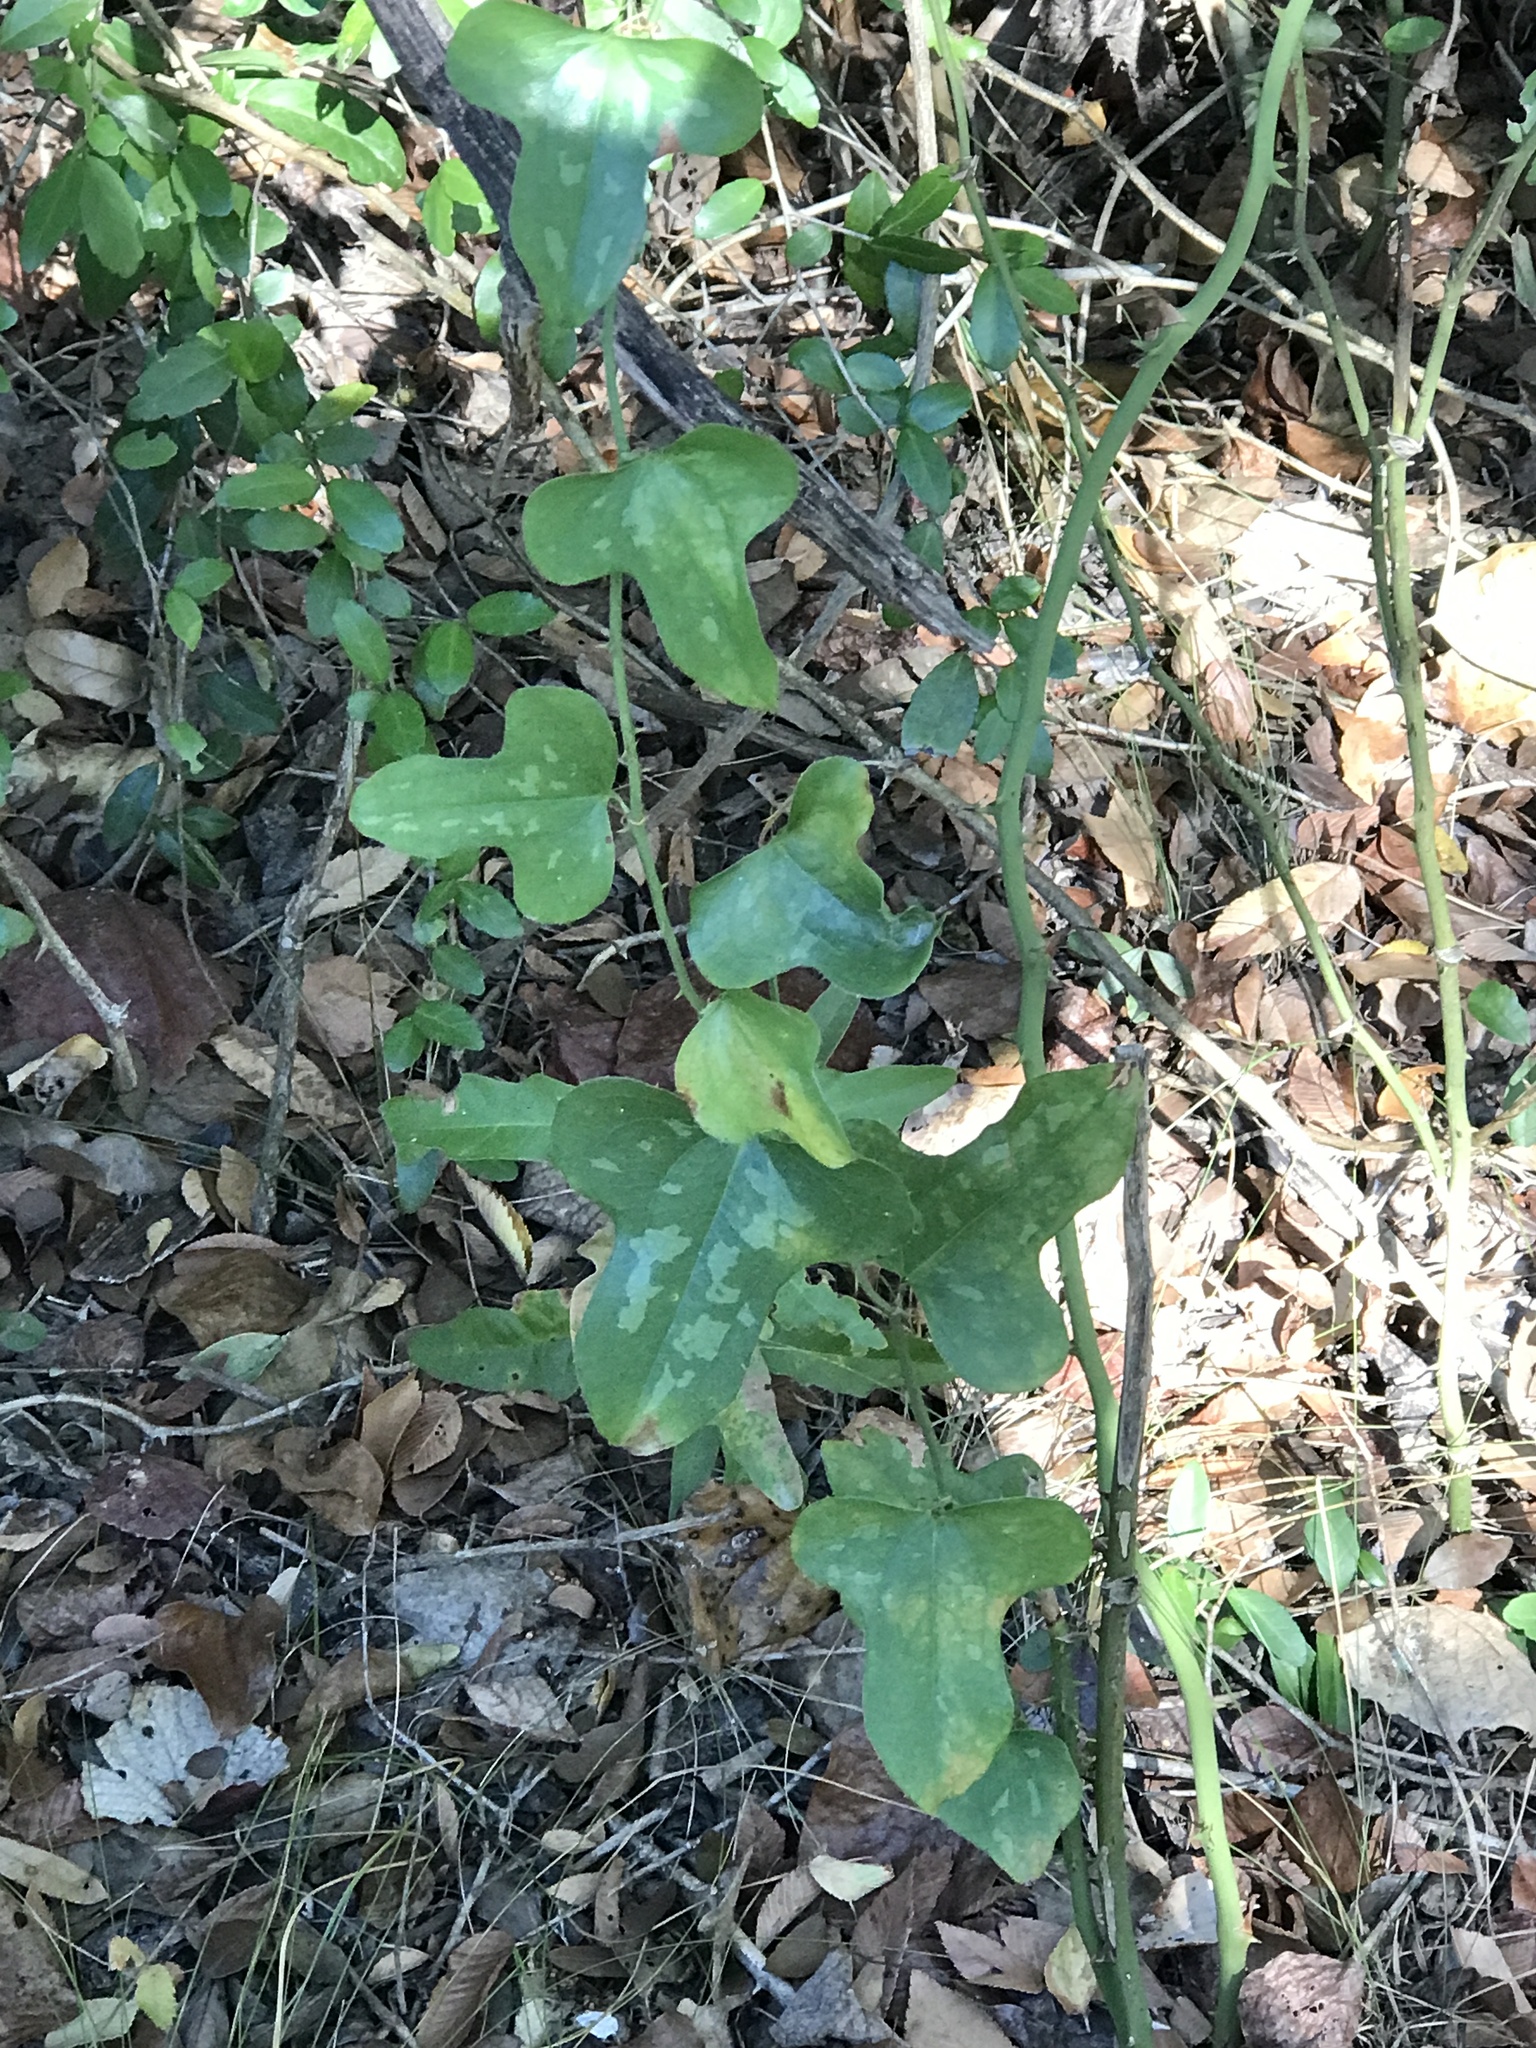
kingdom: Plantae
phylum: Tracheophyta
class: Liliopsida
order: Liliales
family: Smilacaceae
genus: Smilax
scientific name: Smilax bona-nox
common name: Catbrier
